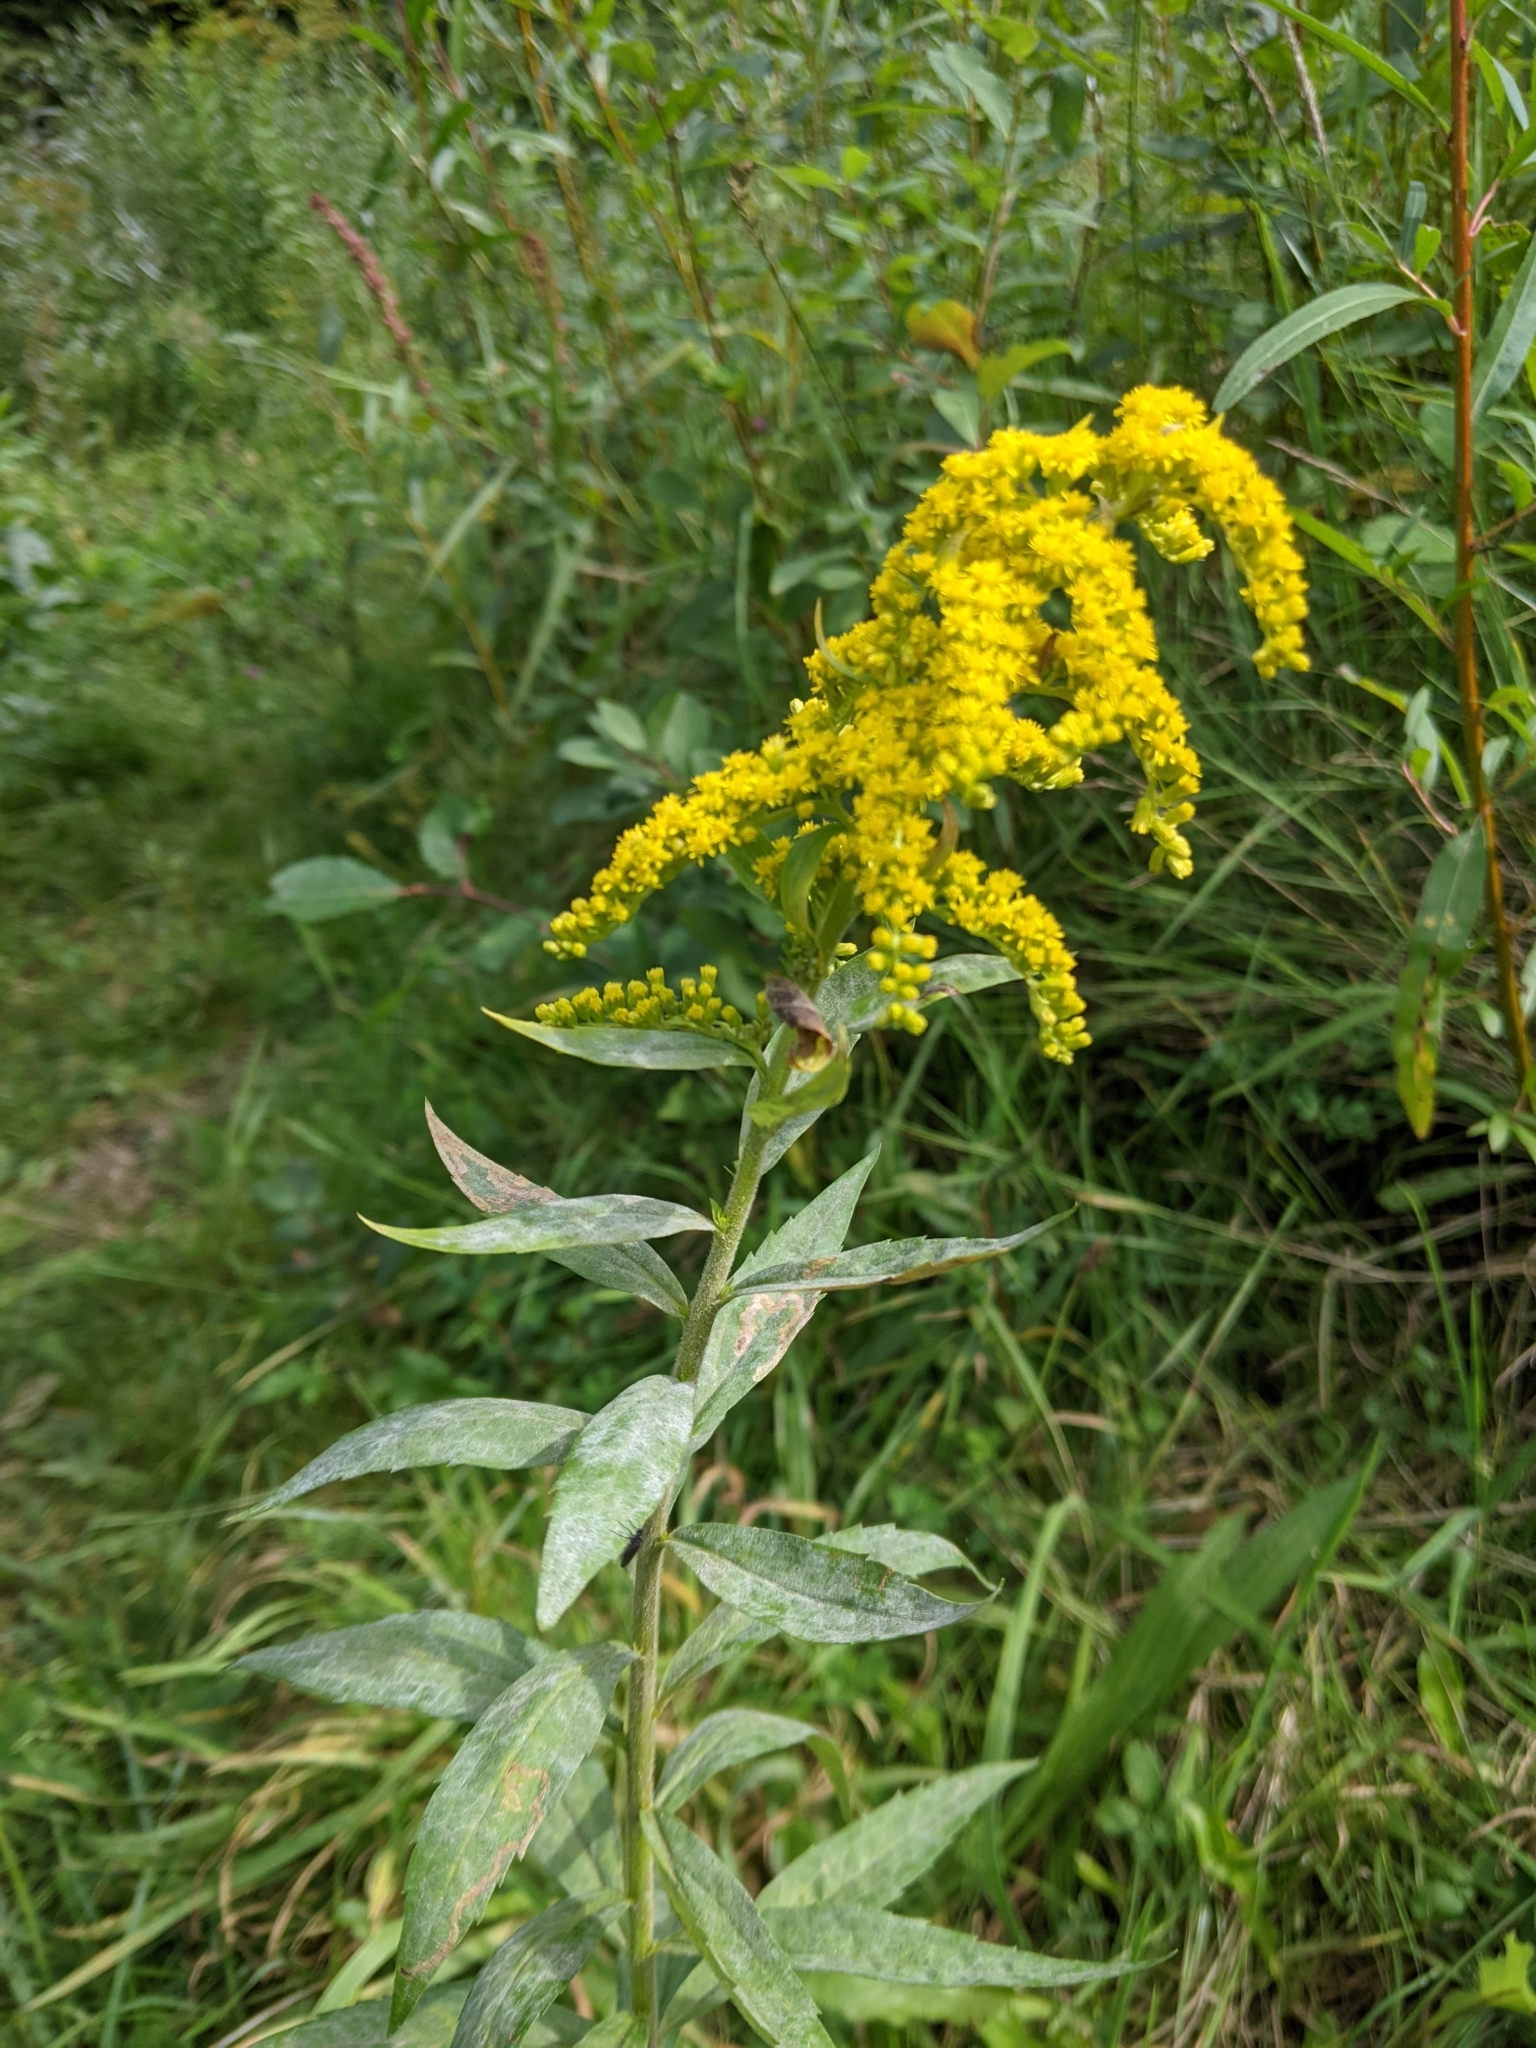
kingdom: Plantae
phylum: Tracheophyta
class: Magnoliopsida
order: Asterales
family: Asteraceae
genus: Solidago
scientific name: Solidago canadensis
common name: Canada goldenrod
